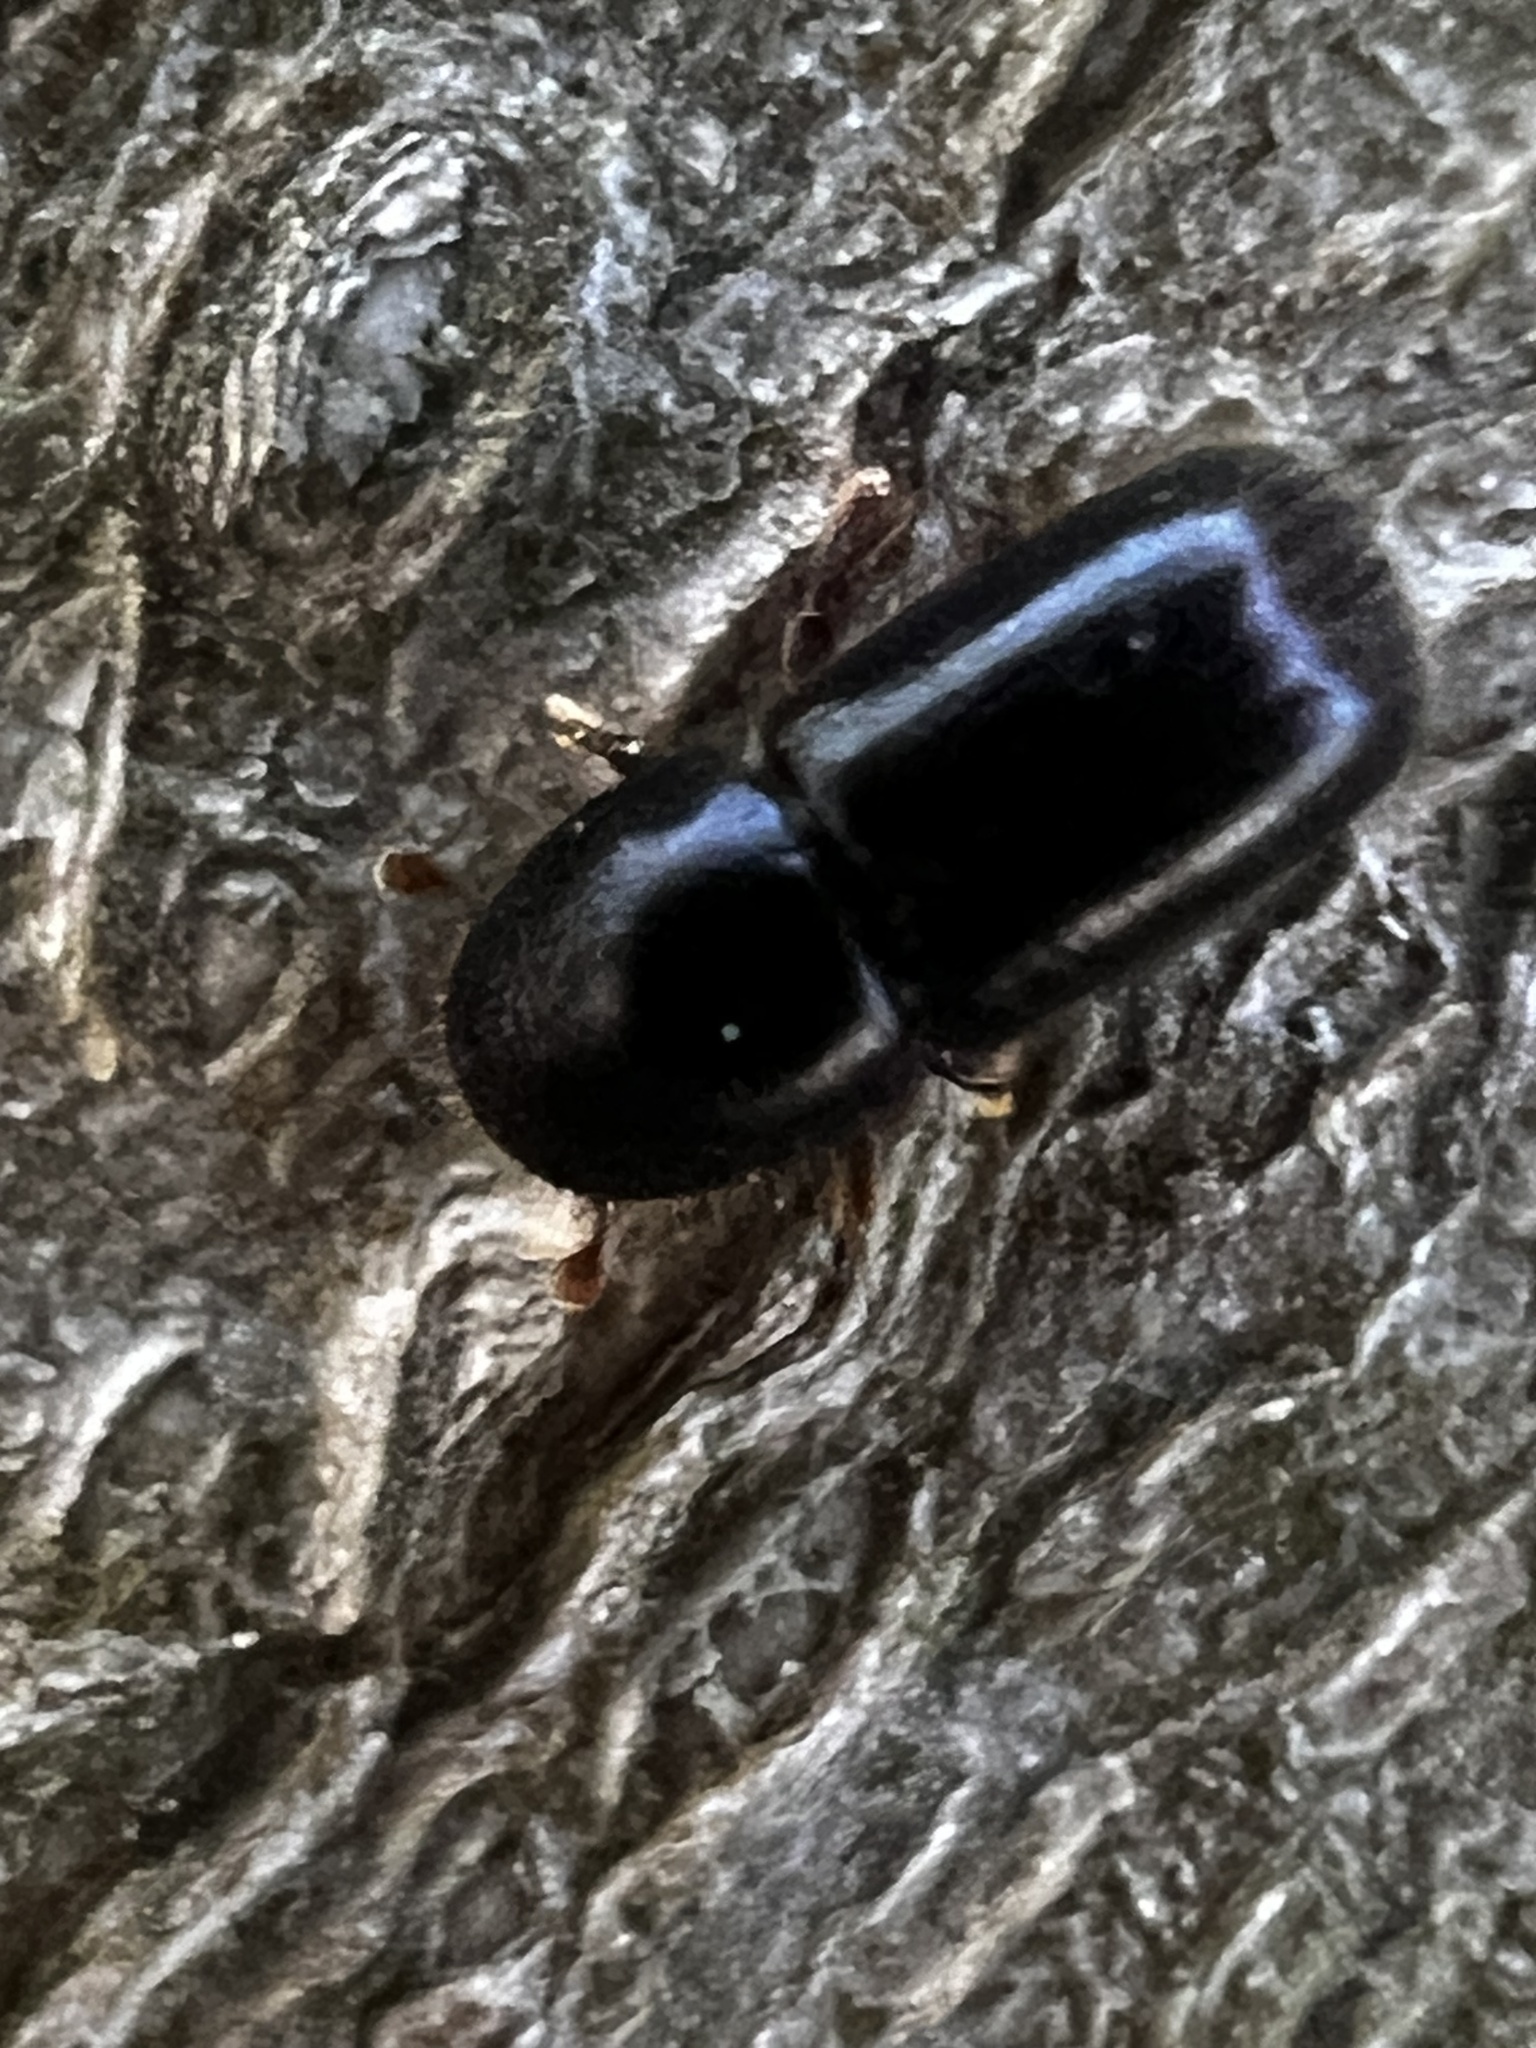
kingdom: Animalia
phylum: Arthropoda
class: Insecta
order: Coleoptera
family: Curculionidae
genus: Xyleborus
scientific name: Xyleborus atratus
